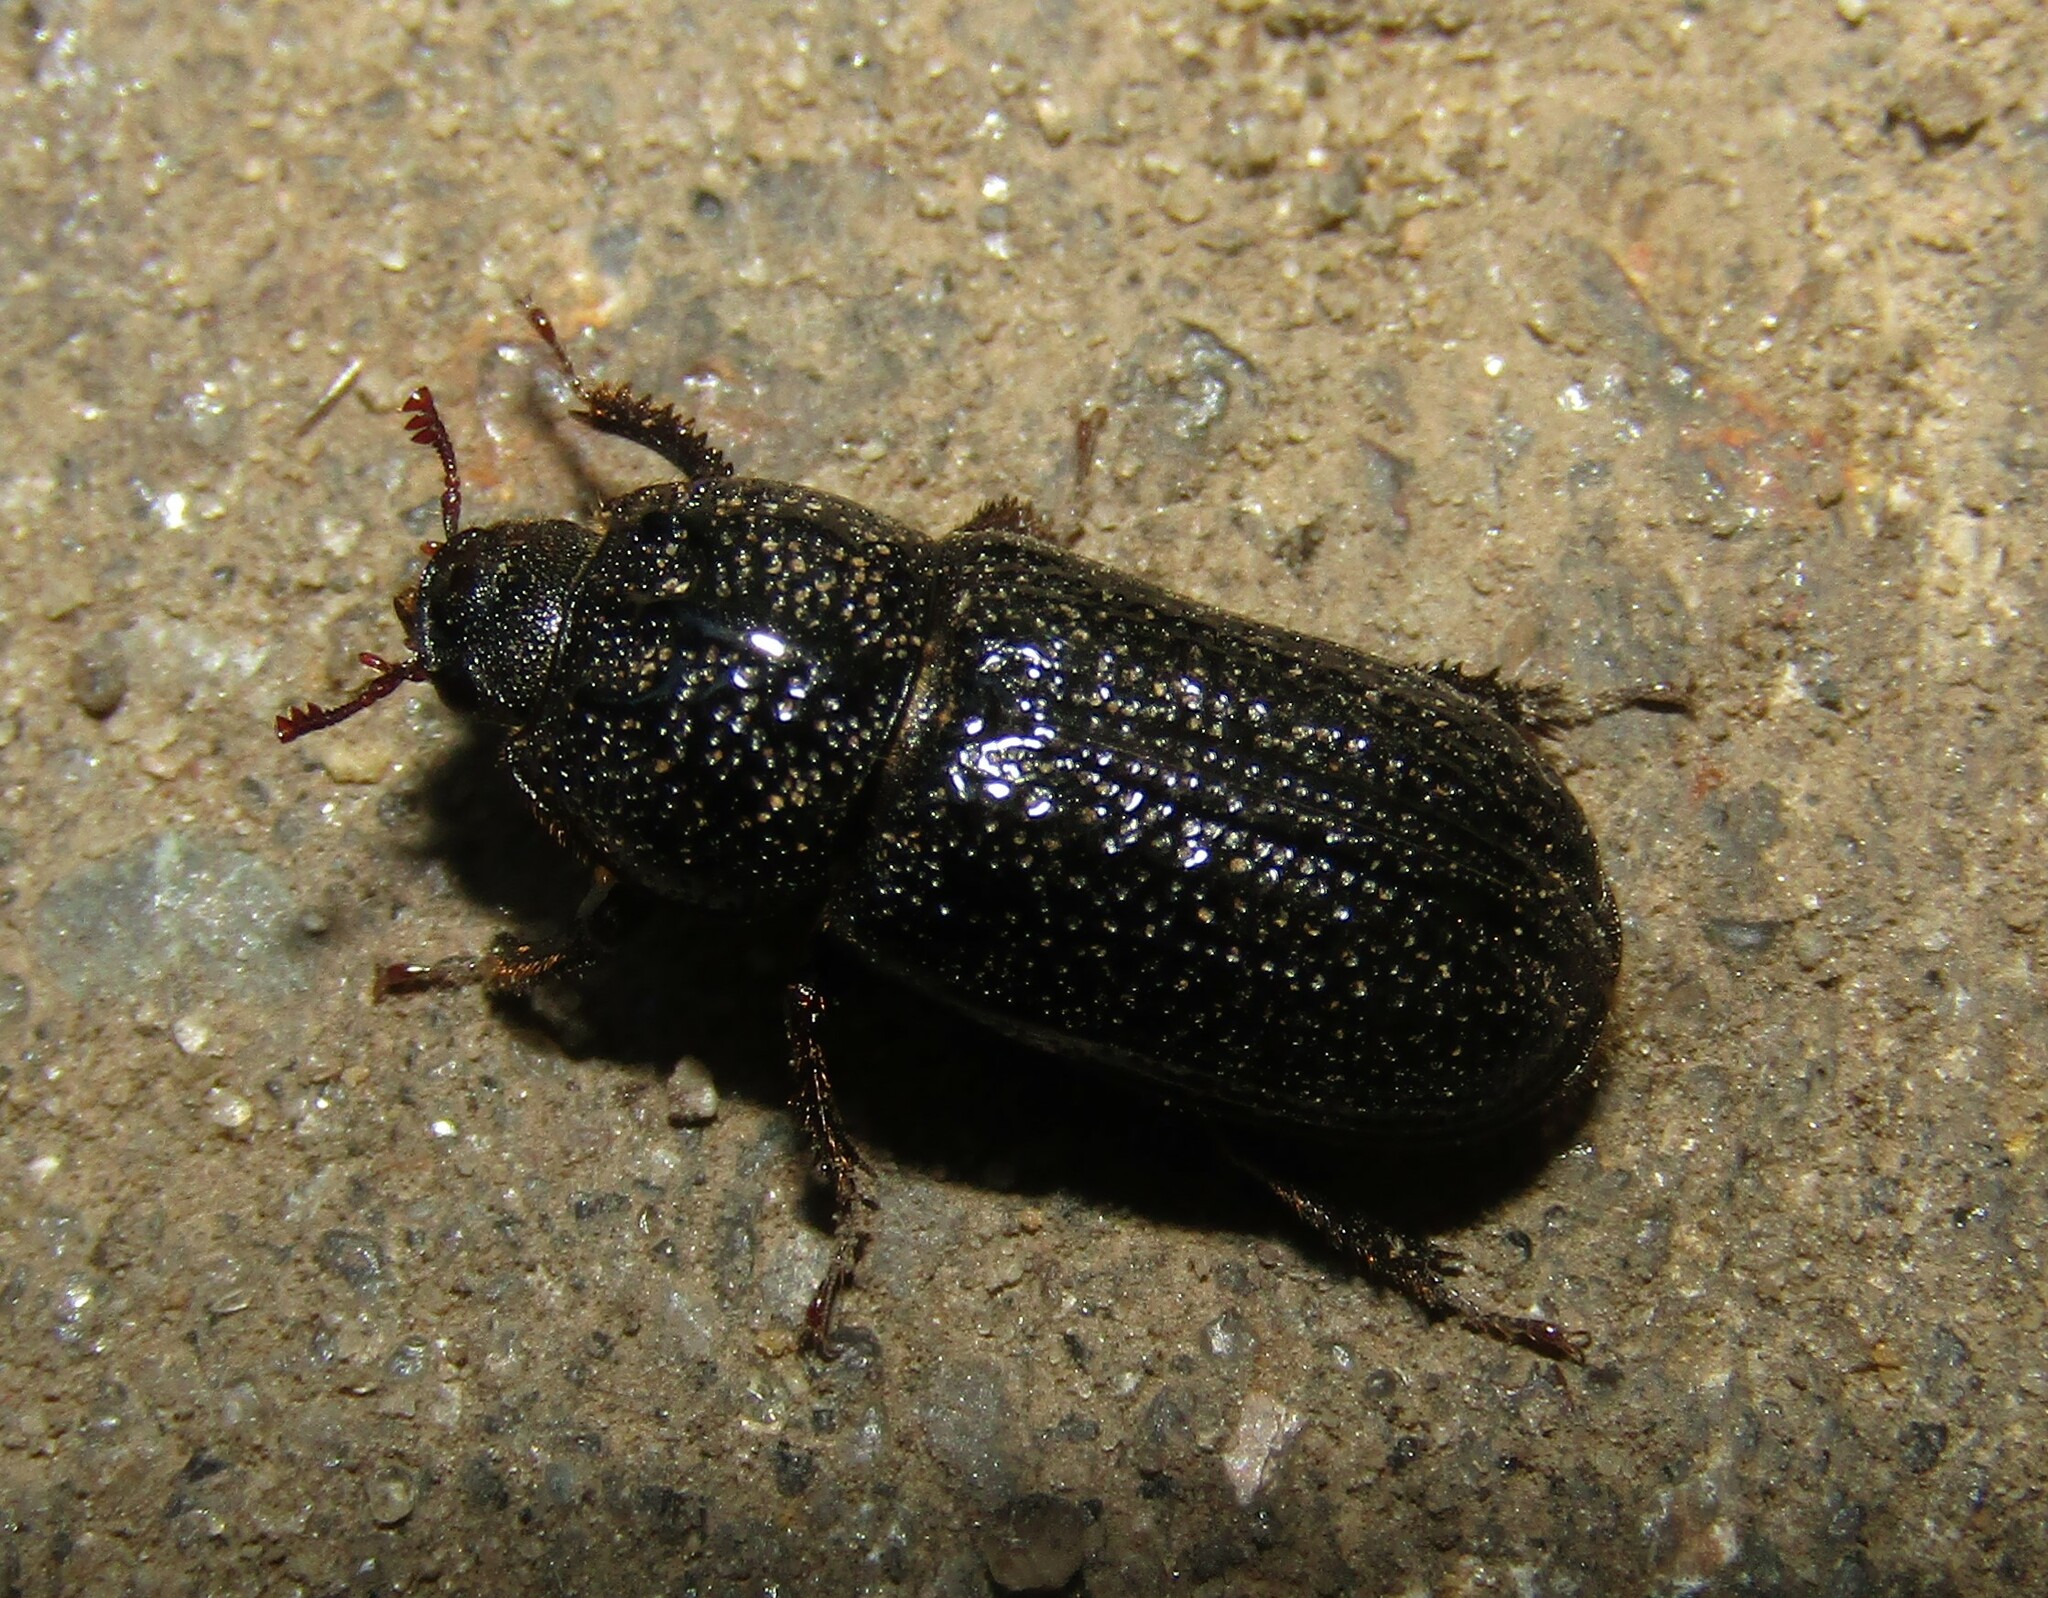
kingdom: Animalia
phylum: Arthropoda
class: Insecta
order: Coleoptera
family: Lucanidae
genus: Sinodendron
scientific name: Sinodendron cylindricum
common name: Rhinoceros beetle
